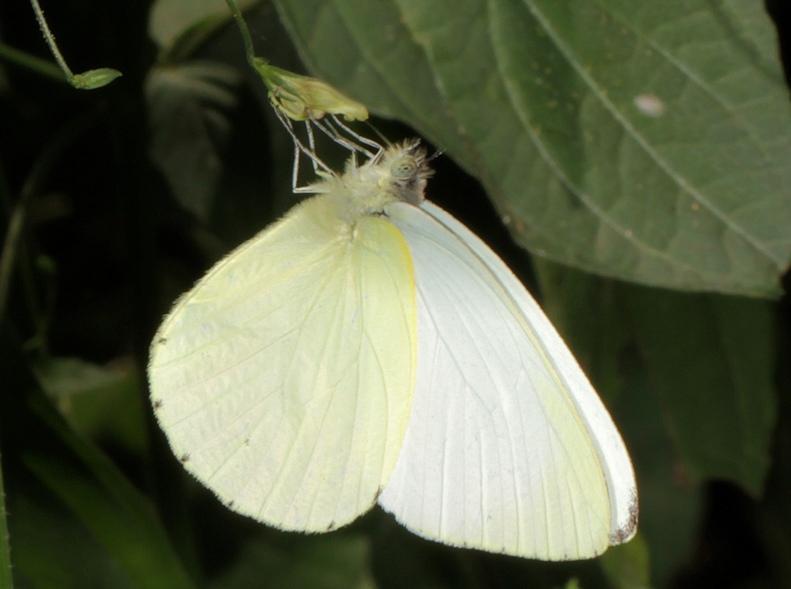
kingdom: Animalia
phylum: Arthropoda
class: Insecta
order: Lepidoptera
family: Pieridae
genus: Dixeia
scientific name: Dixeia pigea
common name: Ant-heap small white
